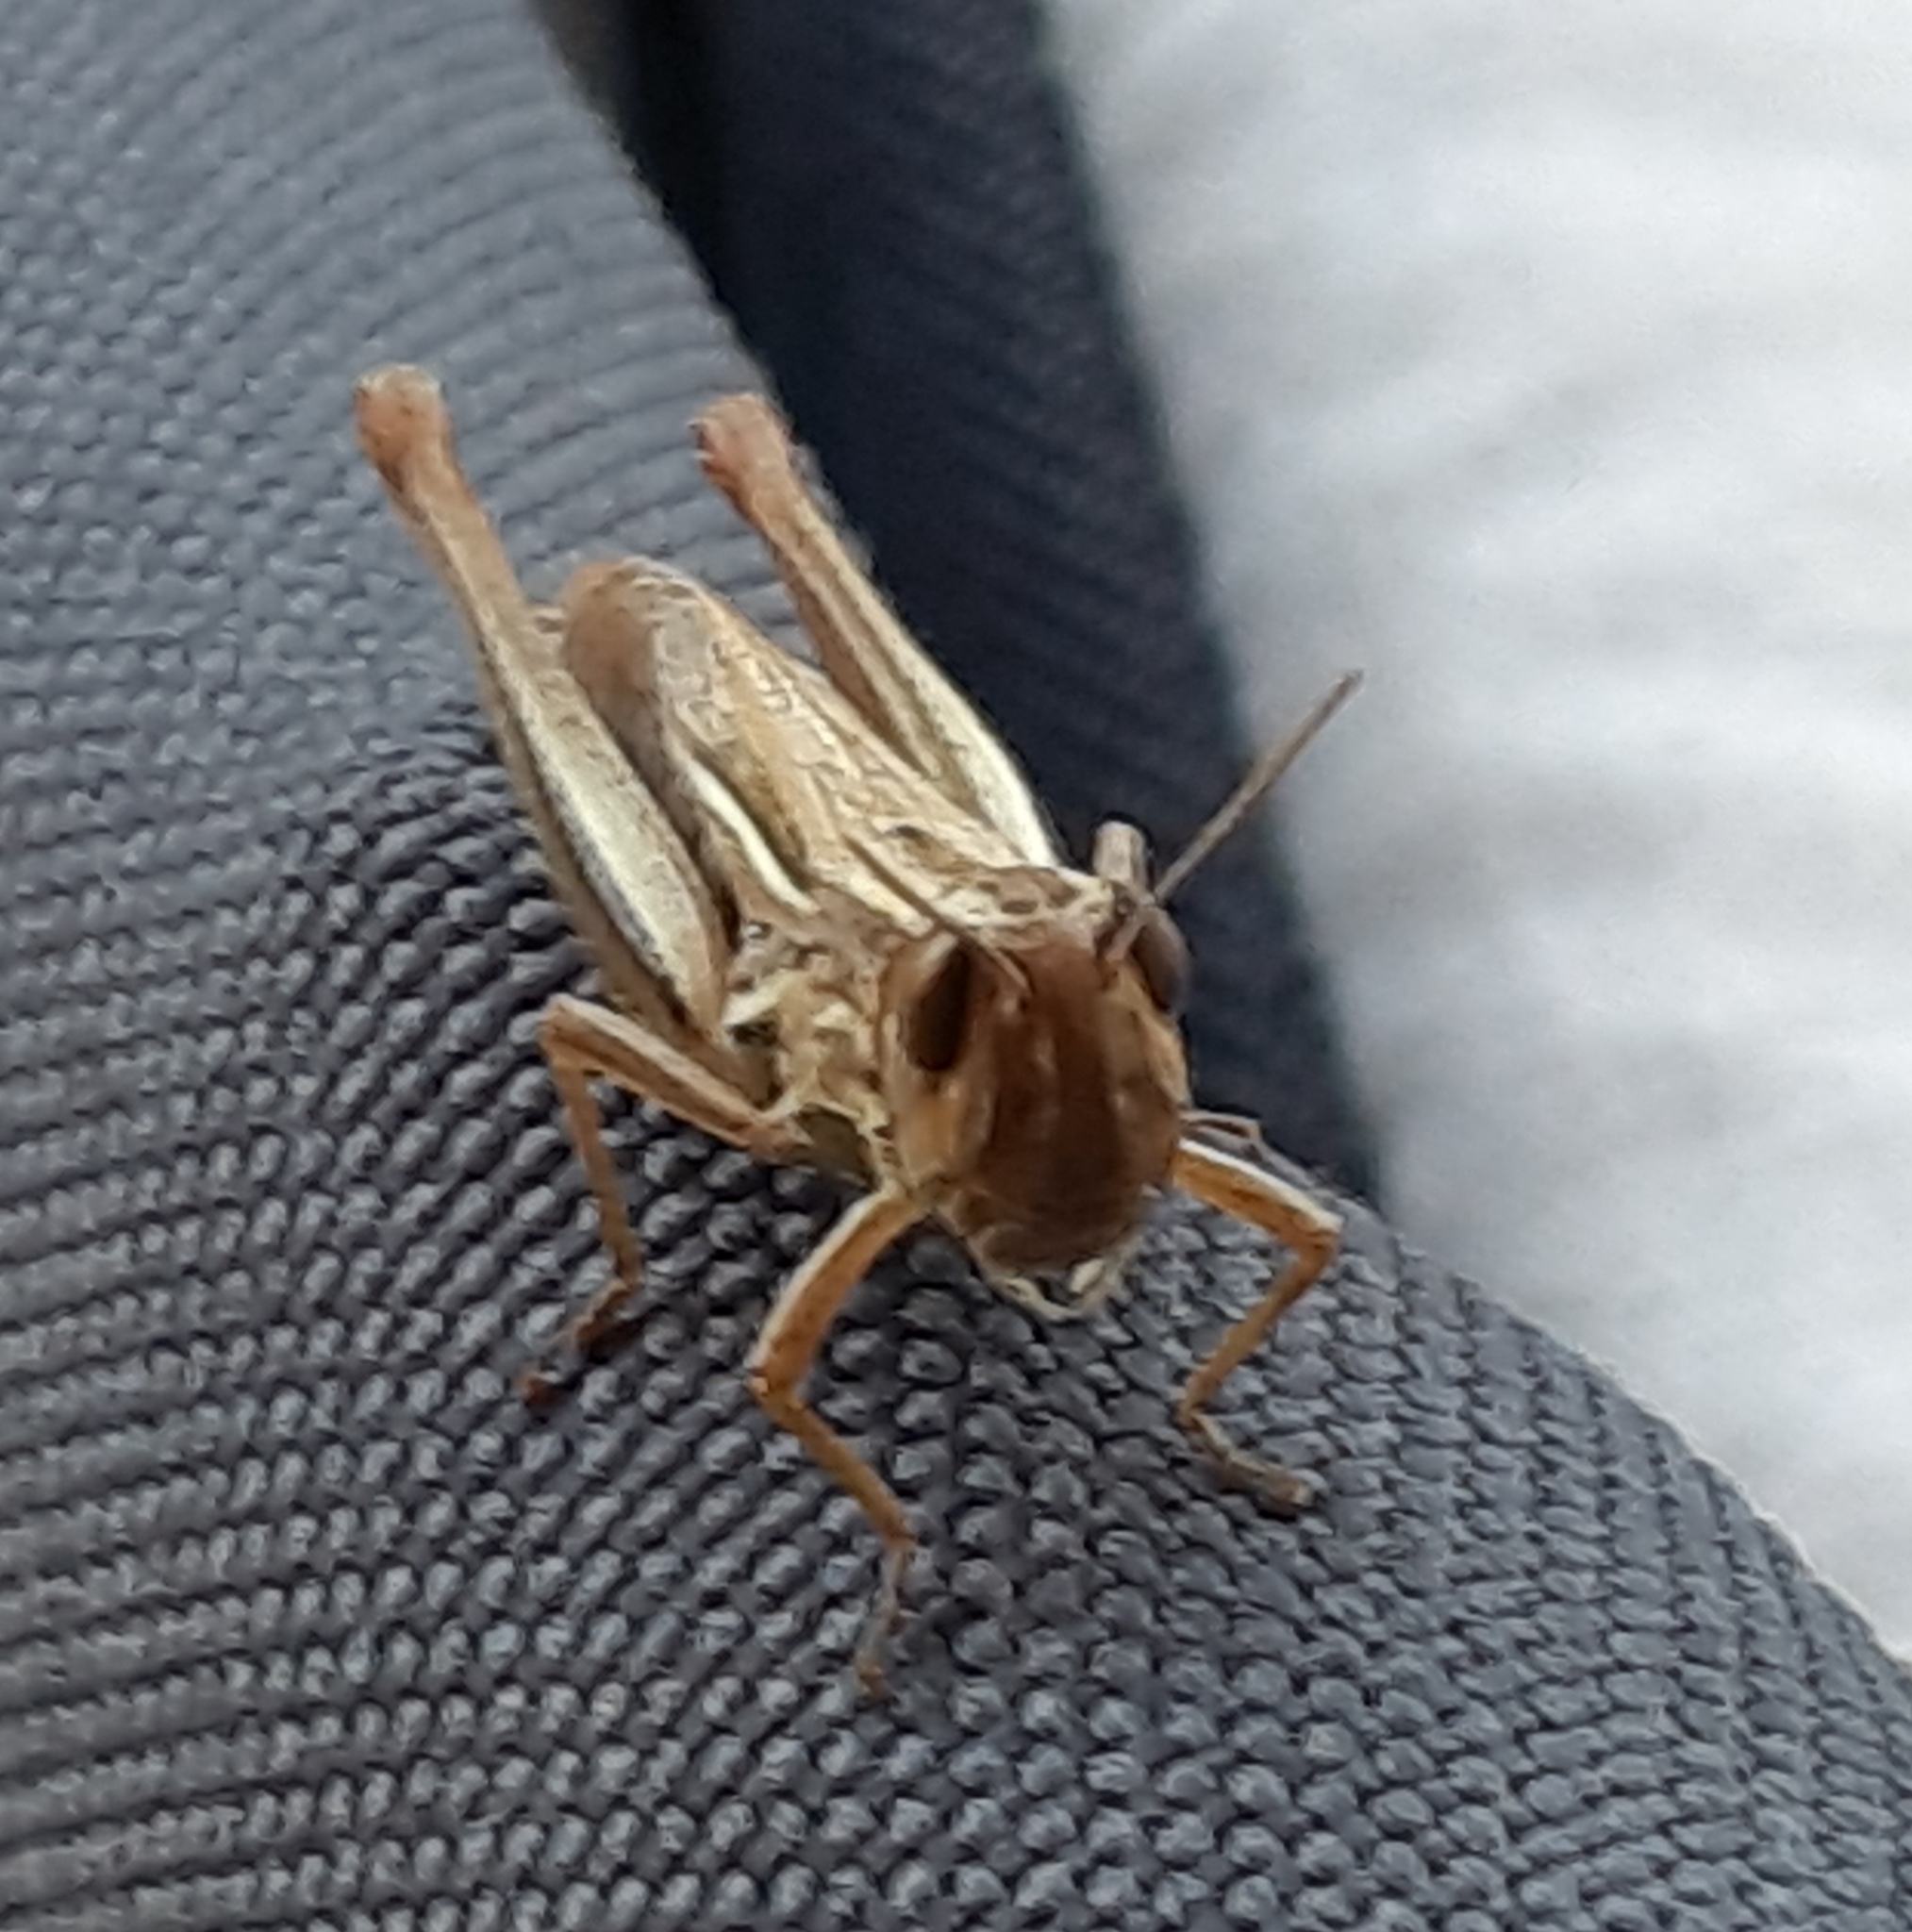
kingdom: Animalia
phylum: Arthropoda
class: Insecta
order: Orthoptera
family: Acrididae
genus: Euchorthippus
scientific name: Euchorthippus declivus
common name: Common straw grasshopper
